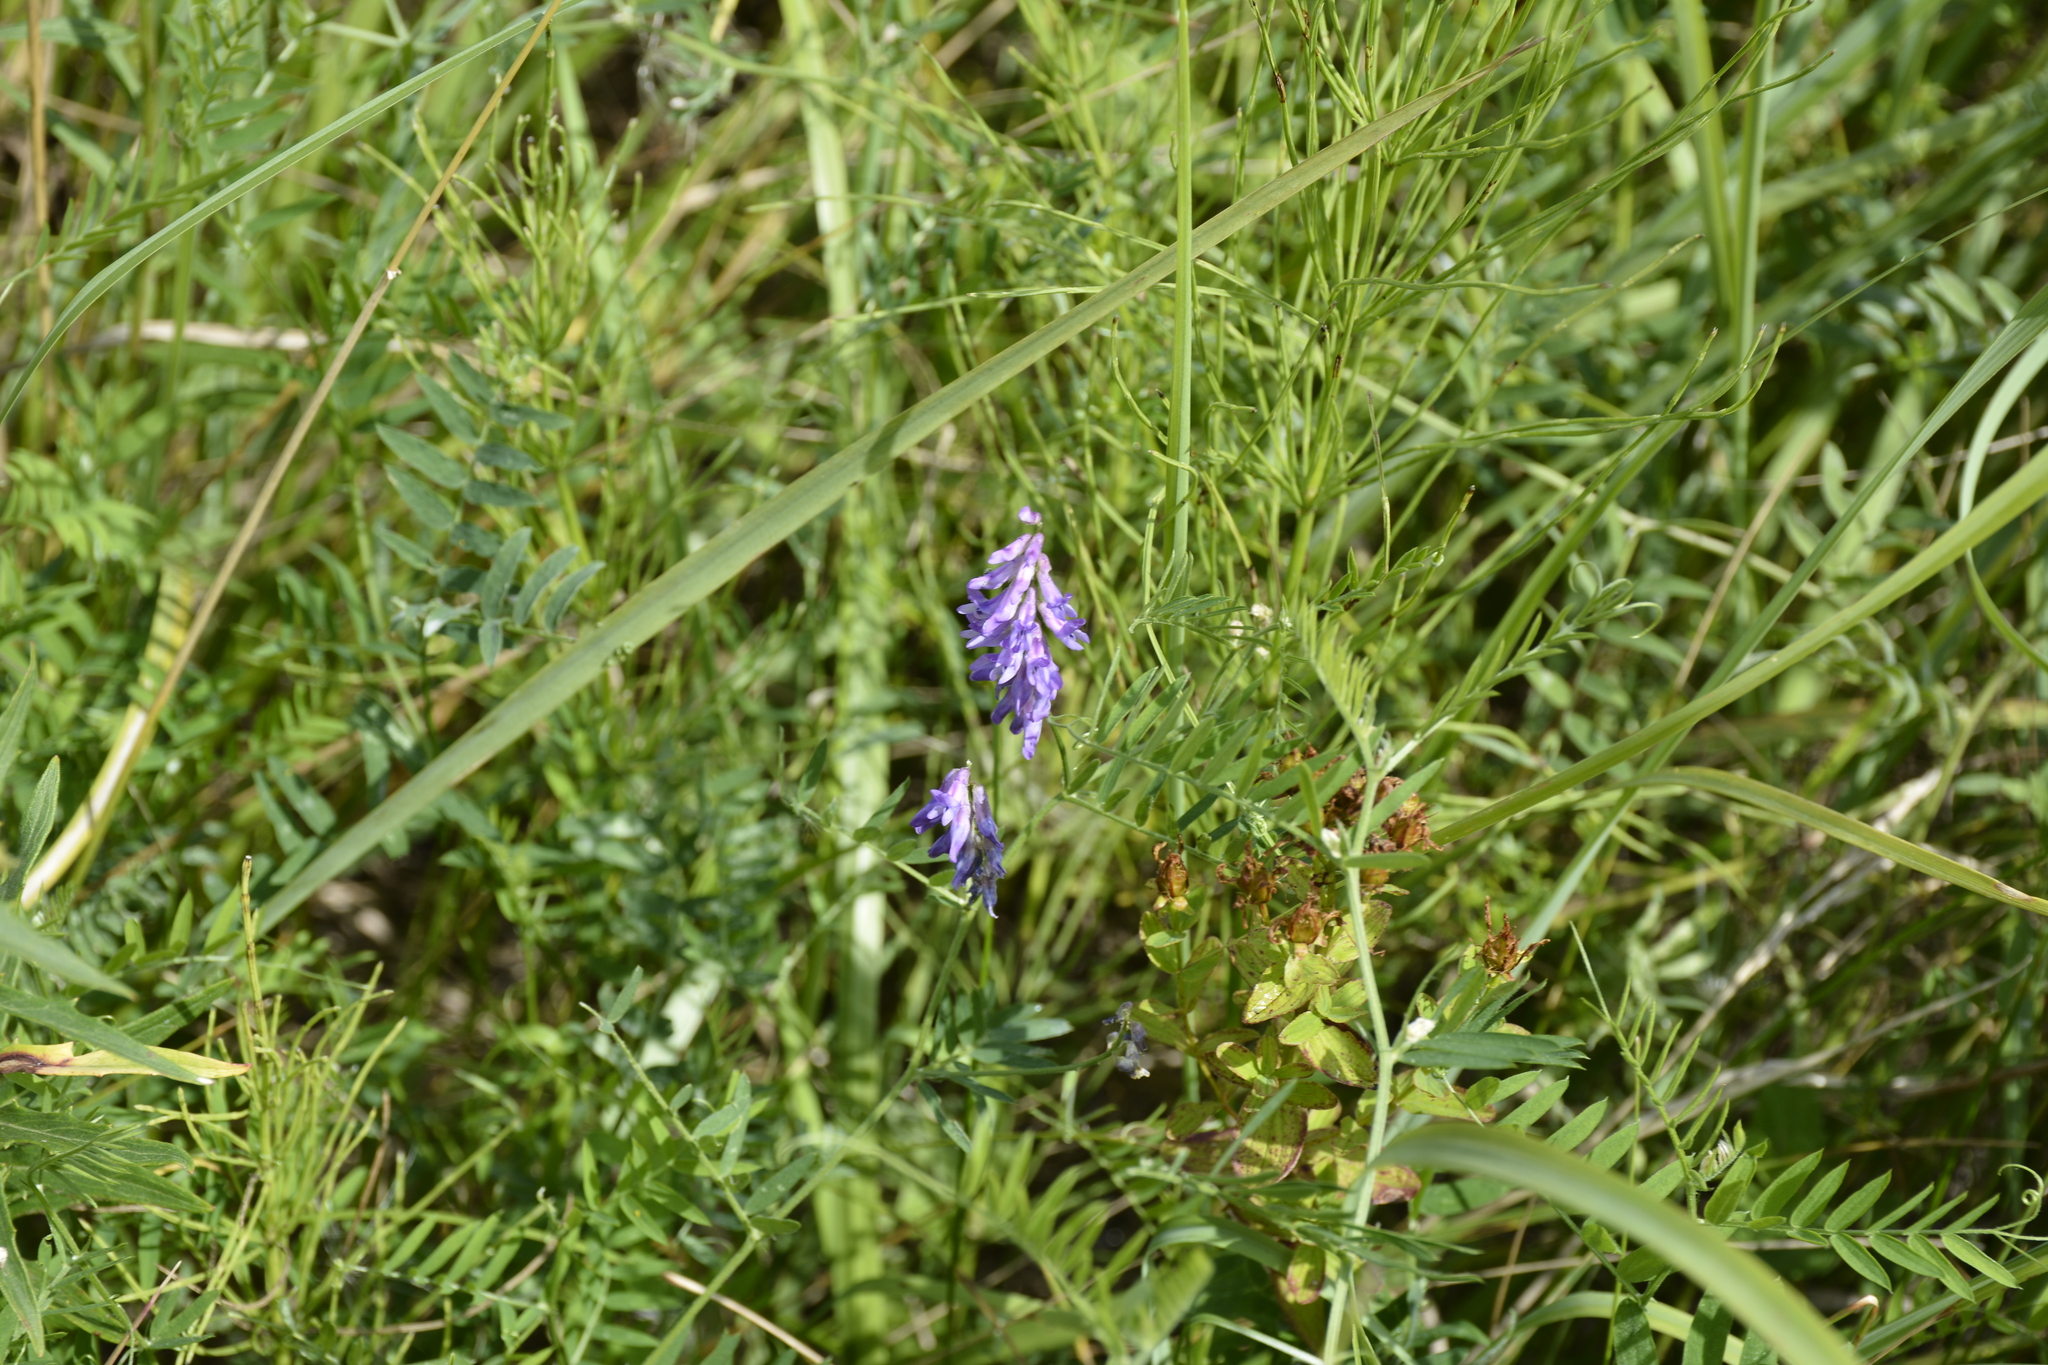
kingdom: Plantae
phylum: Tracheophyta
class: Magnoliopsida
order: Fabales
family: Fabaceae
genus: Vicia
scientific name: Vicia cracca
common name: Bird vetch
